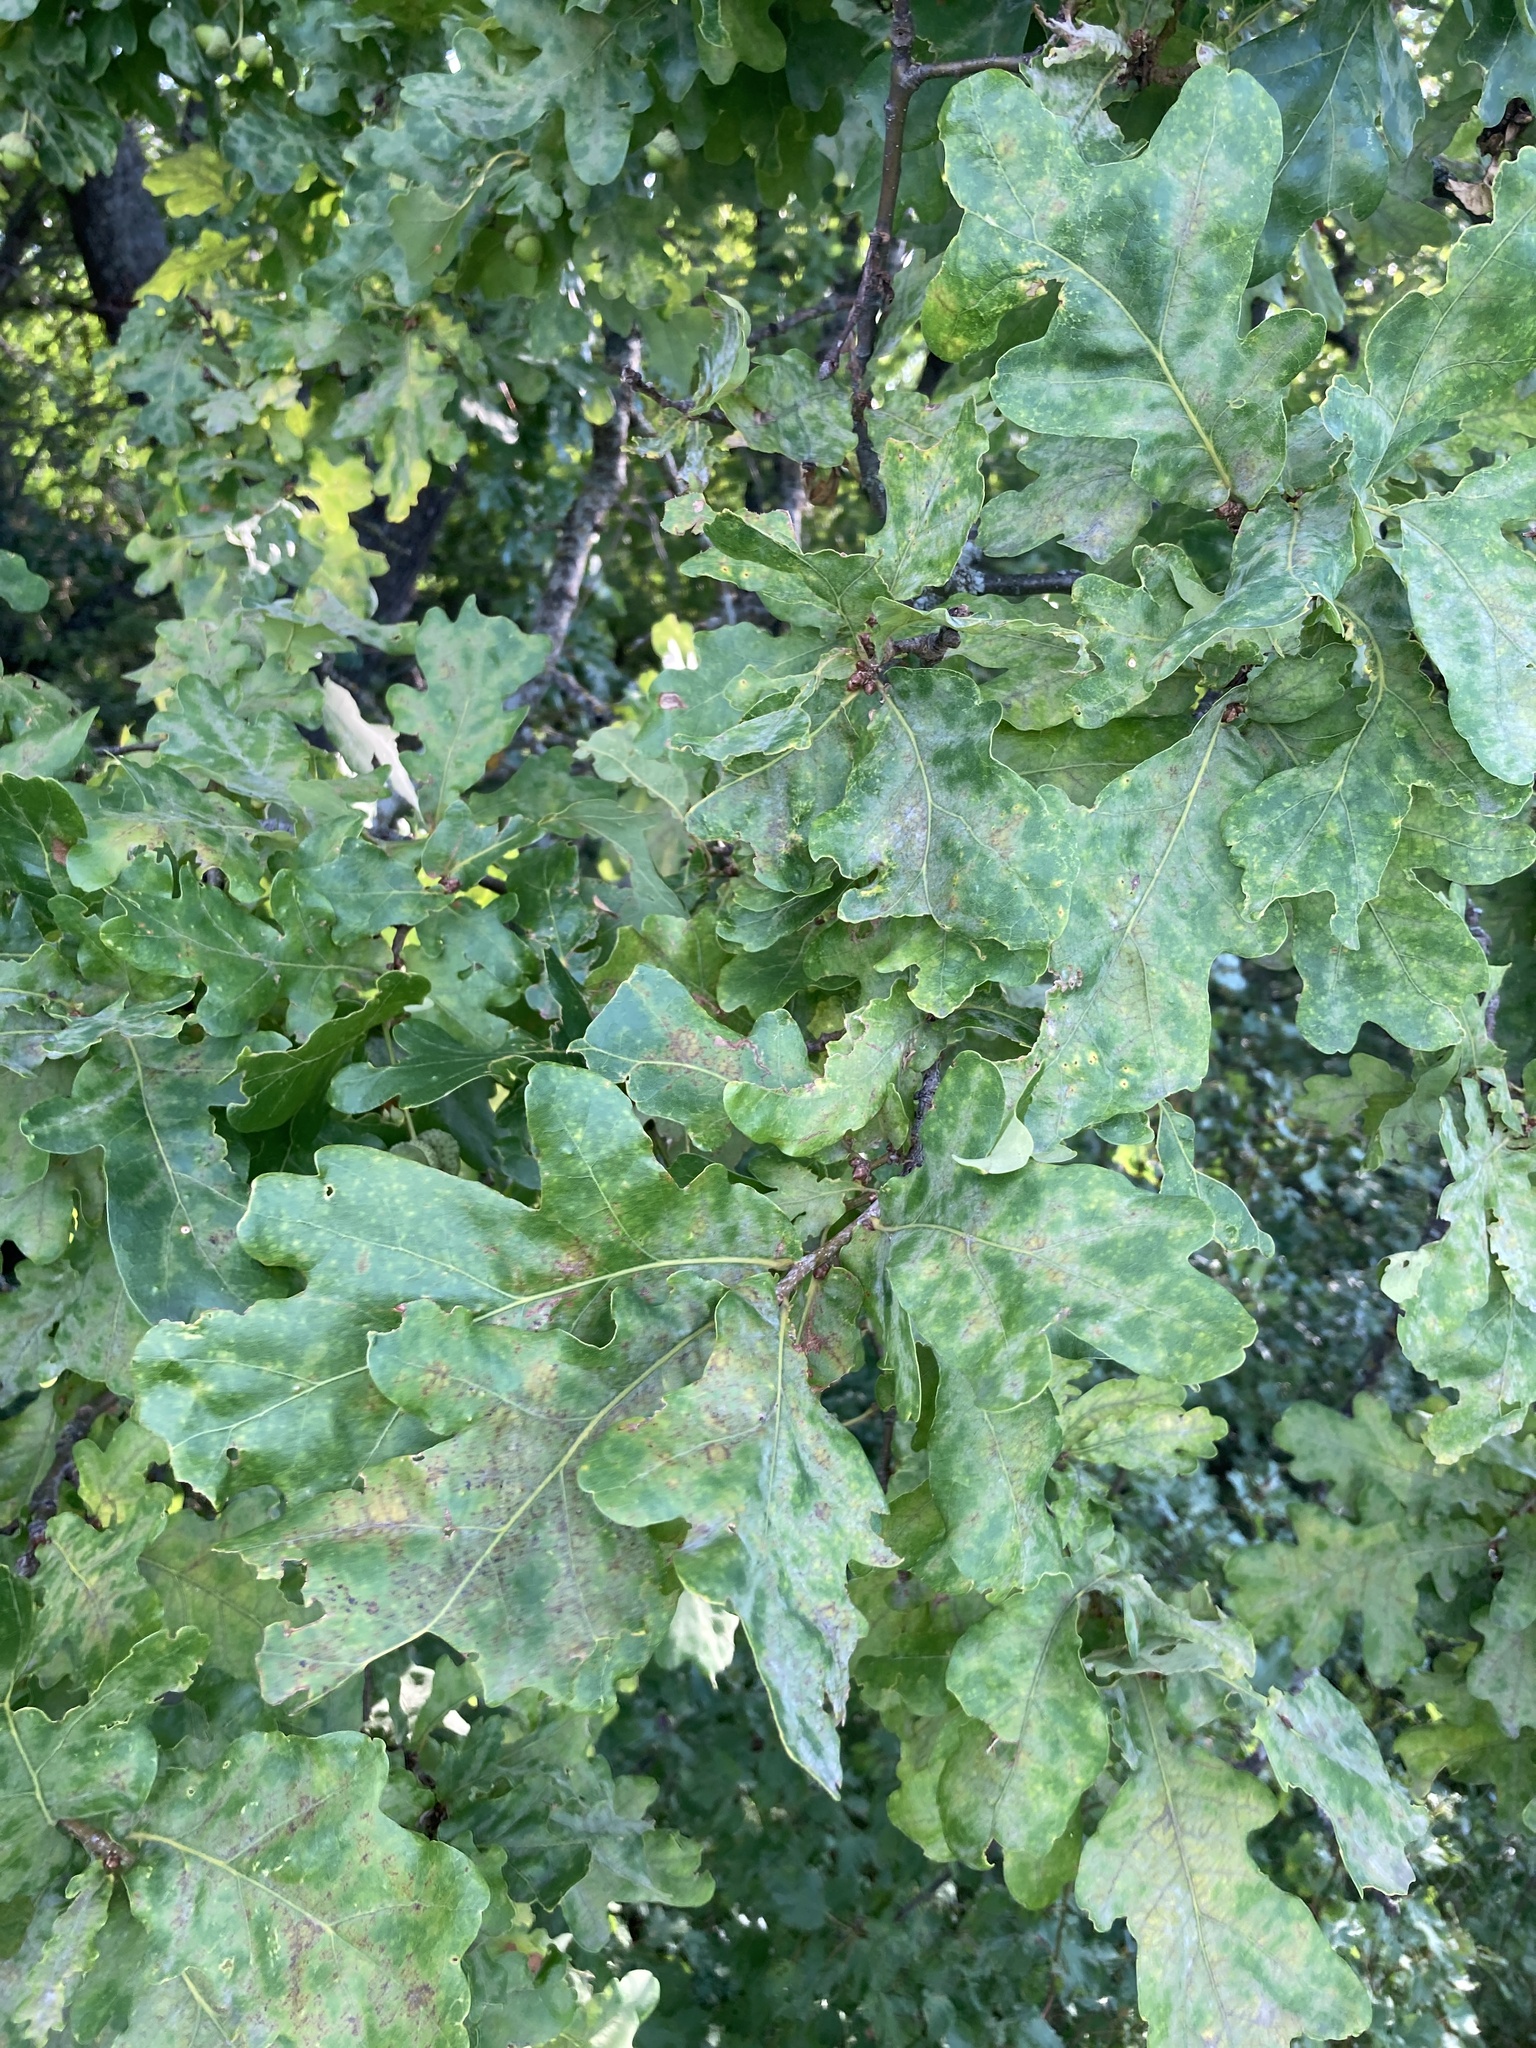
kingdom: Plantae
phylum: Tracheophyta
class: Magnoliopsida
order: Fagales
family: Fagaceae
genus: Quercus
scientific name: Quercus robur
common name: Pedunculate oak
